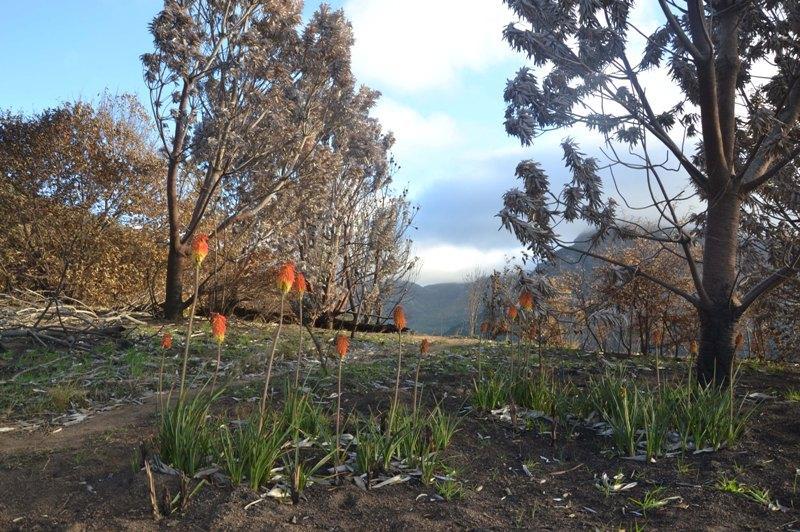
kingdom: Plantae
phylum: Tracheophyta
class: Liliopsida
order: Asparagales
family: Asphodelaceae
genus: Kniphofia
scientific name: Kniphofia uvaria
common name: Red-hot-poker
